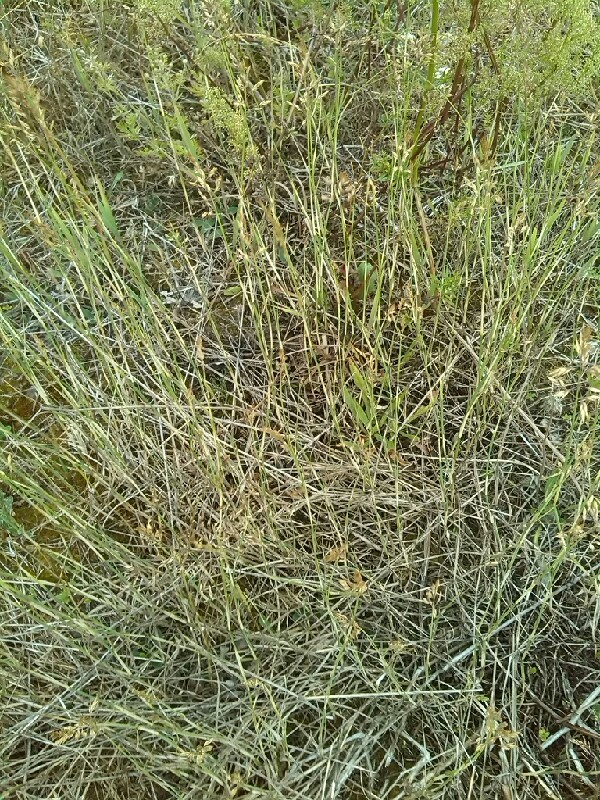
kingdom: Plantae
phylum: Tracheophyta
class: Liliopsida
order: Poales
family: Poaceae
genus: Poa
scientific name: Poa compressa
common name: Canada bluegrass
